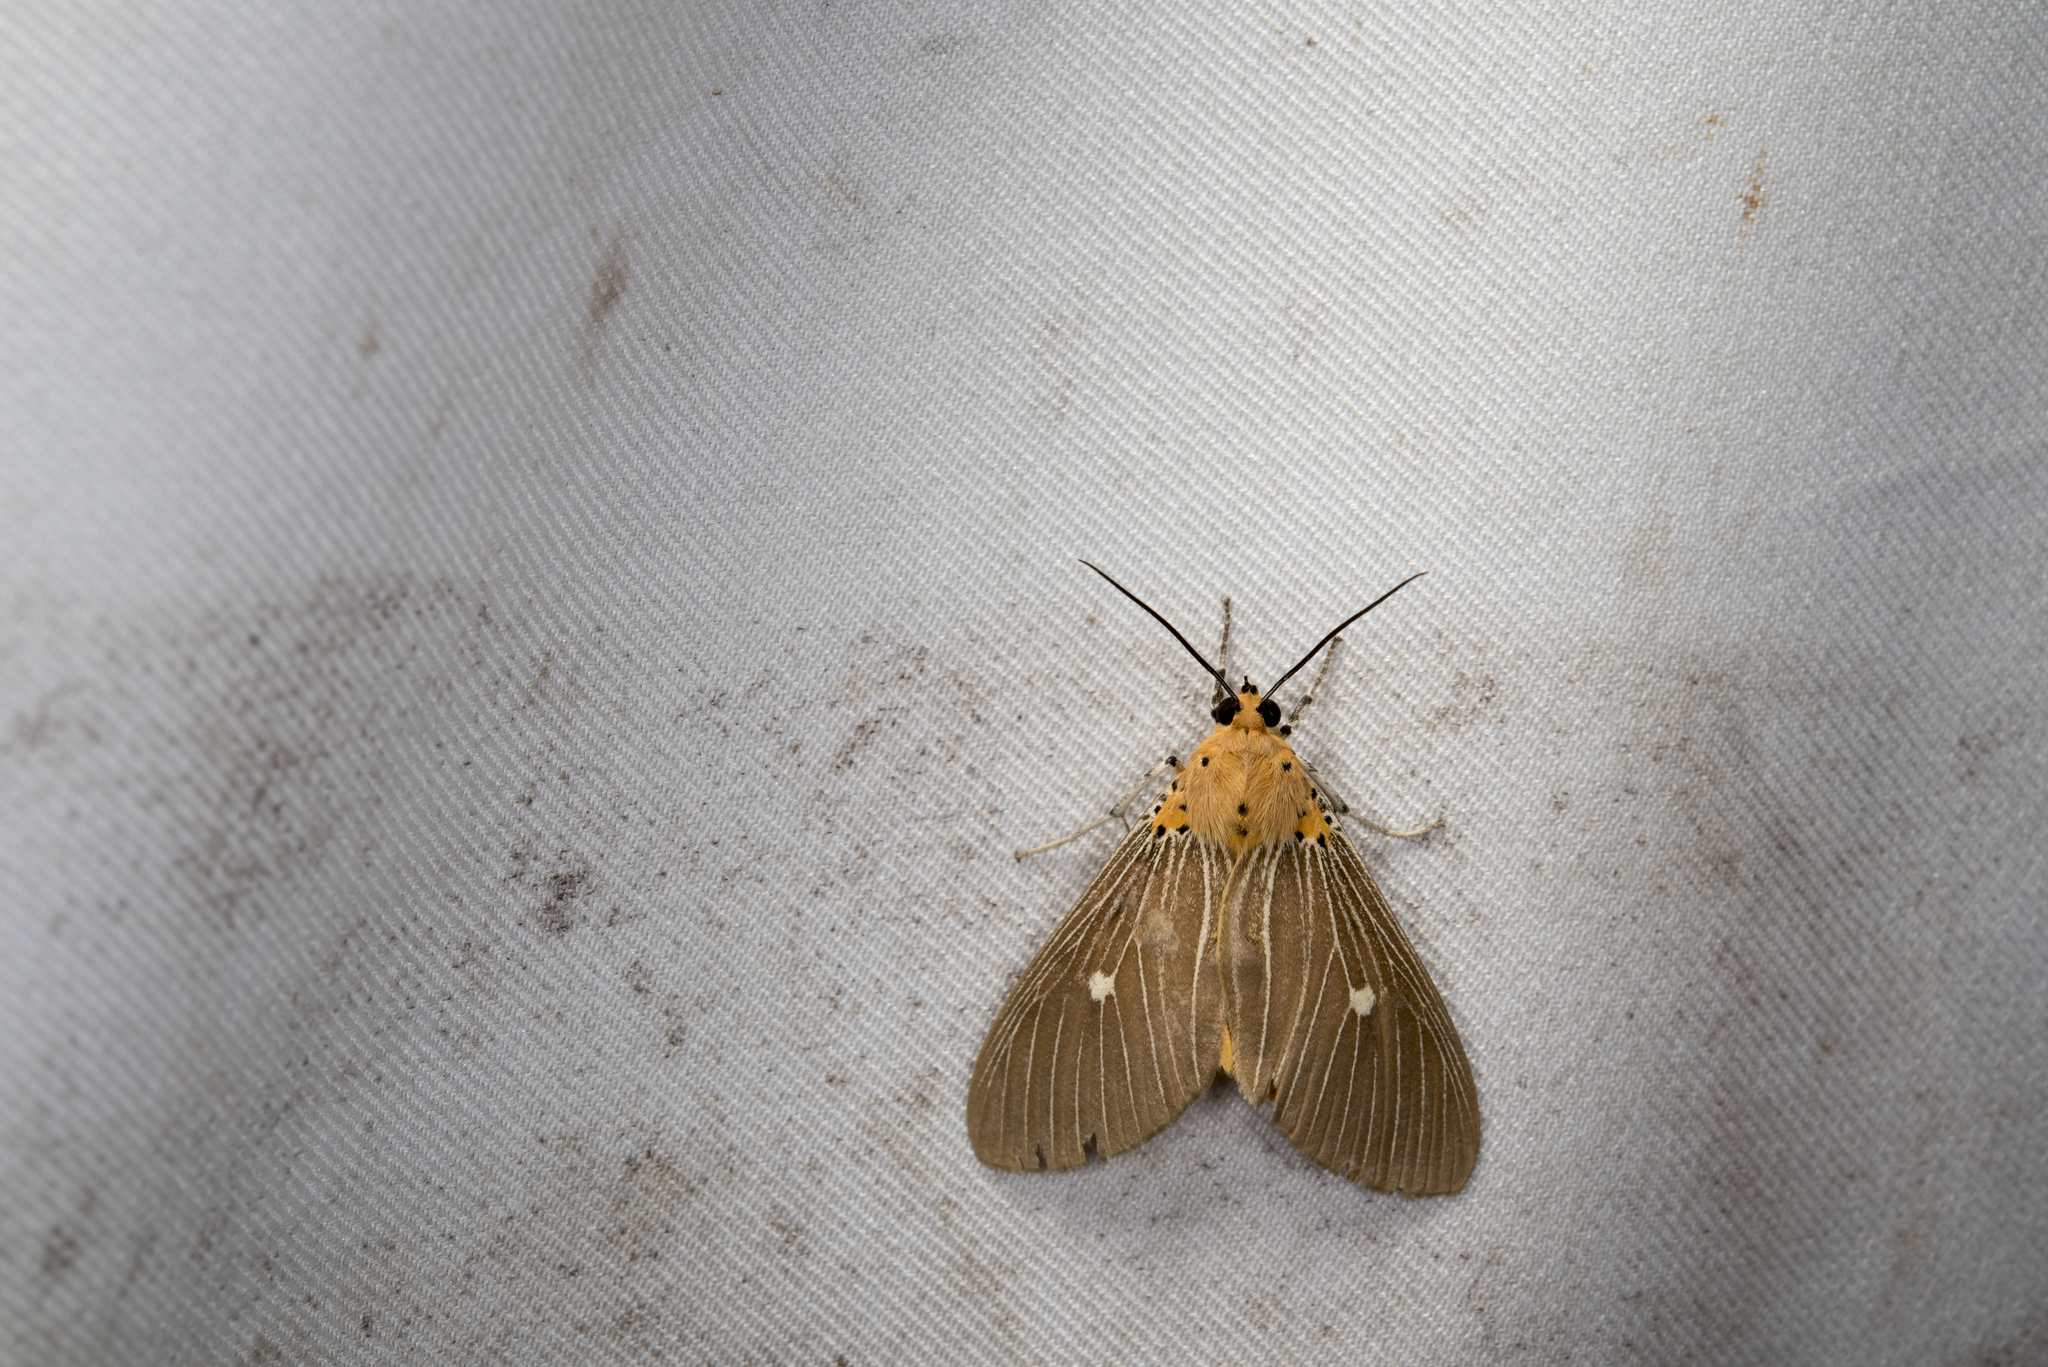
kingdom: Animalia
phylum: Arthropoda
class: Insecta
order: Lepidoptera
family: Erebidae
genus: Asota
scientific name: Asota caricae
